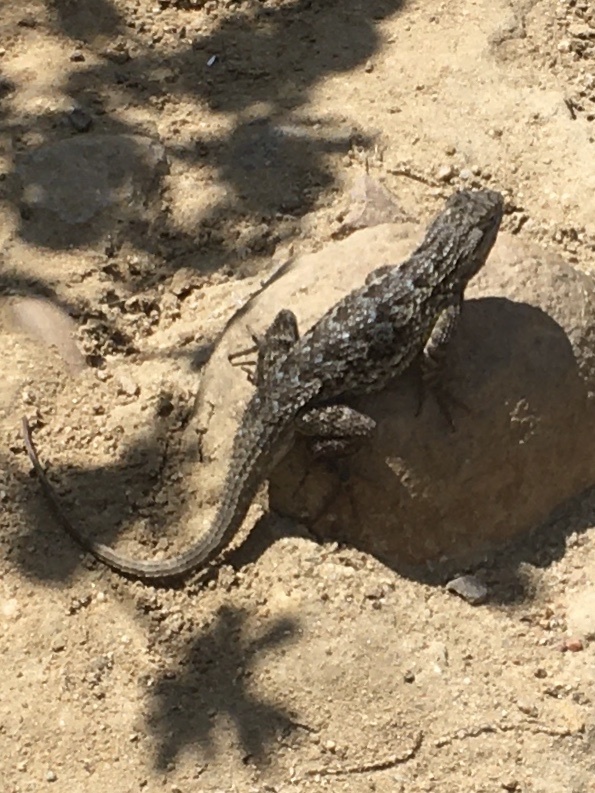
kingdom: Animalia
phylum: Chordata
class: Squamata
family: Phrynosomatidae
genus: Sceloporus
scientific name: Sceloporus occidentalis
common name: Western fence lizard
